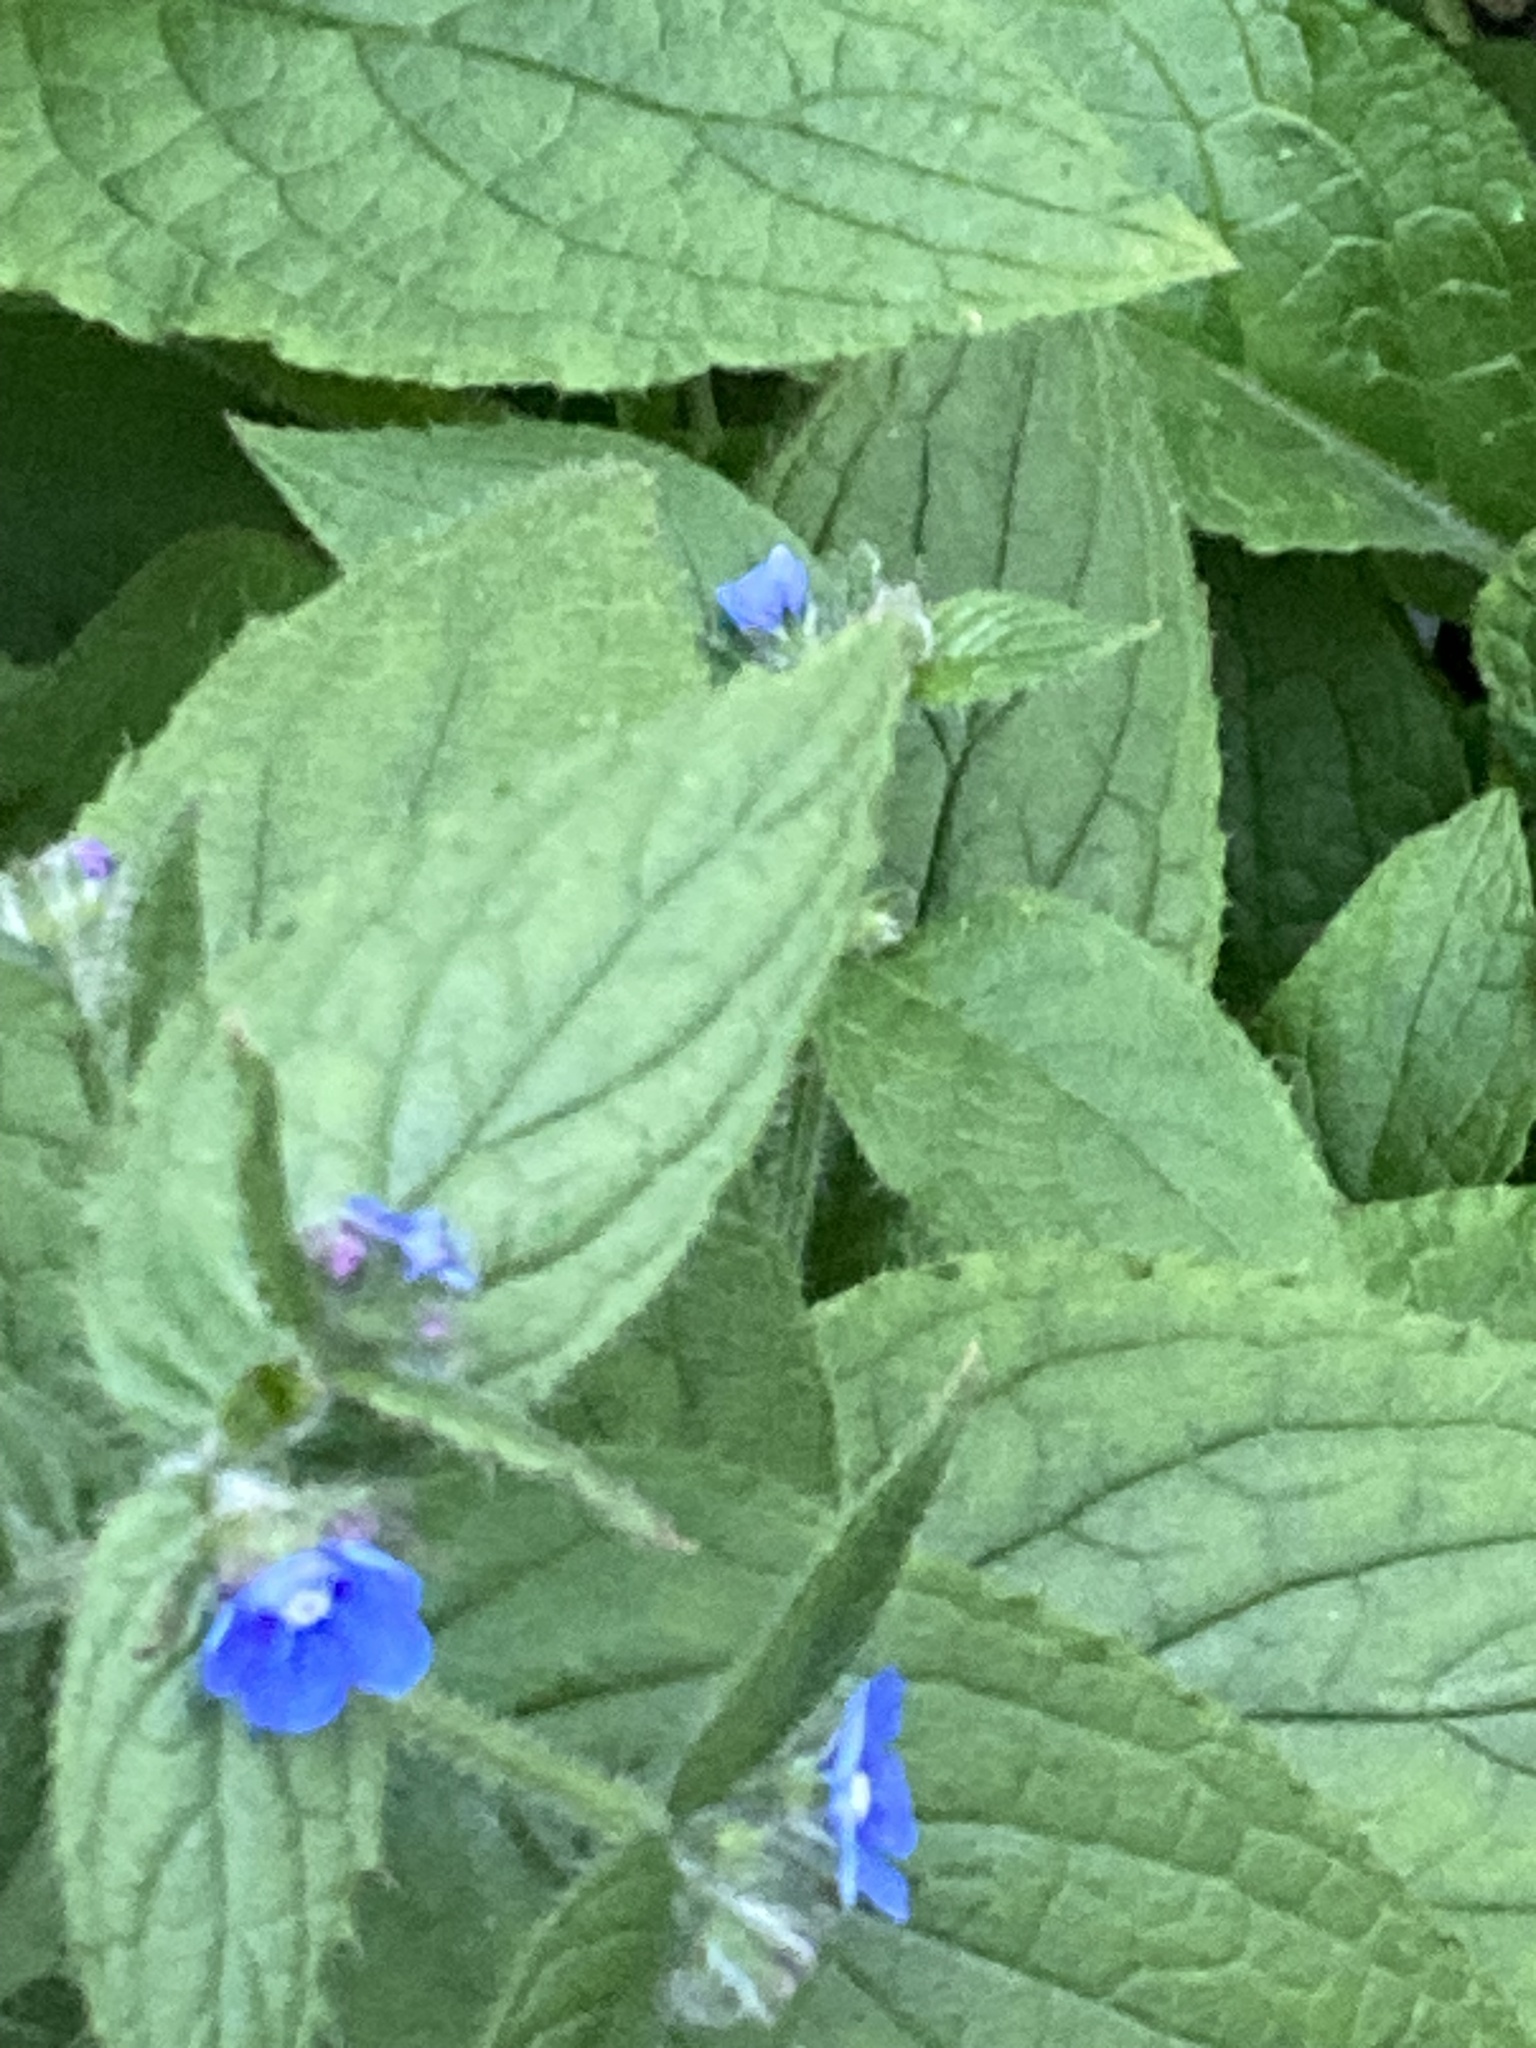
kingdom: Plantae
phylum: Tracheophyta
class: Magnoliopsida
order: Boraginales
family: Boraginaceae
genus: Pentaglottis
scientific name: Pentaglottis sempervirens
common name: Green alkanet
